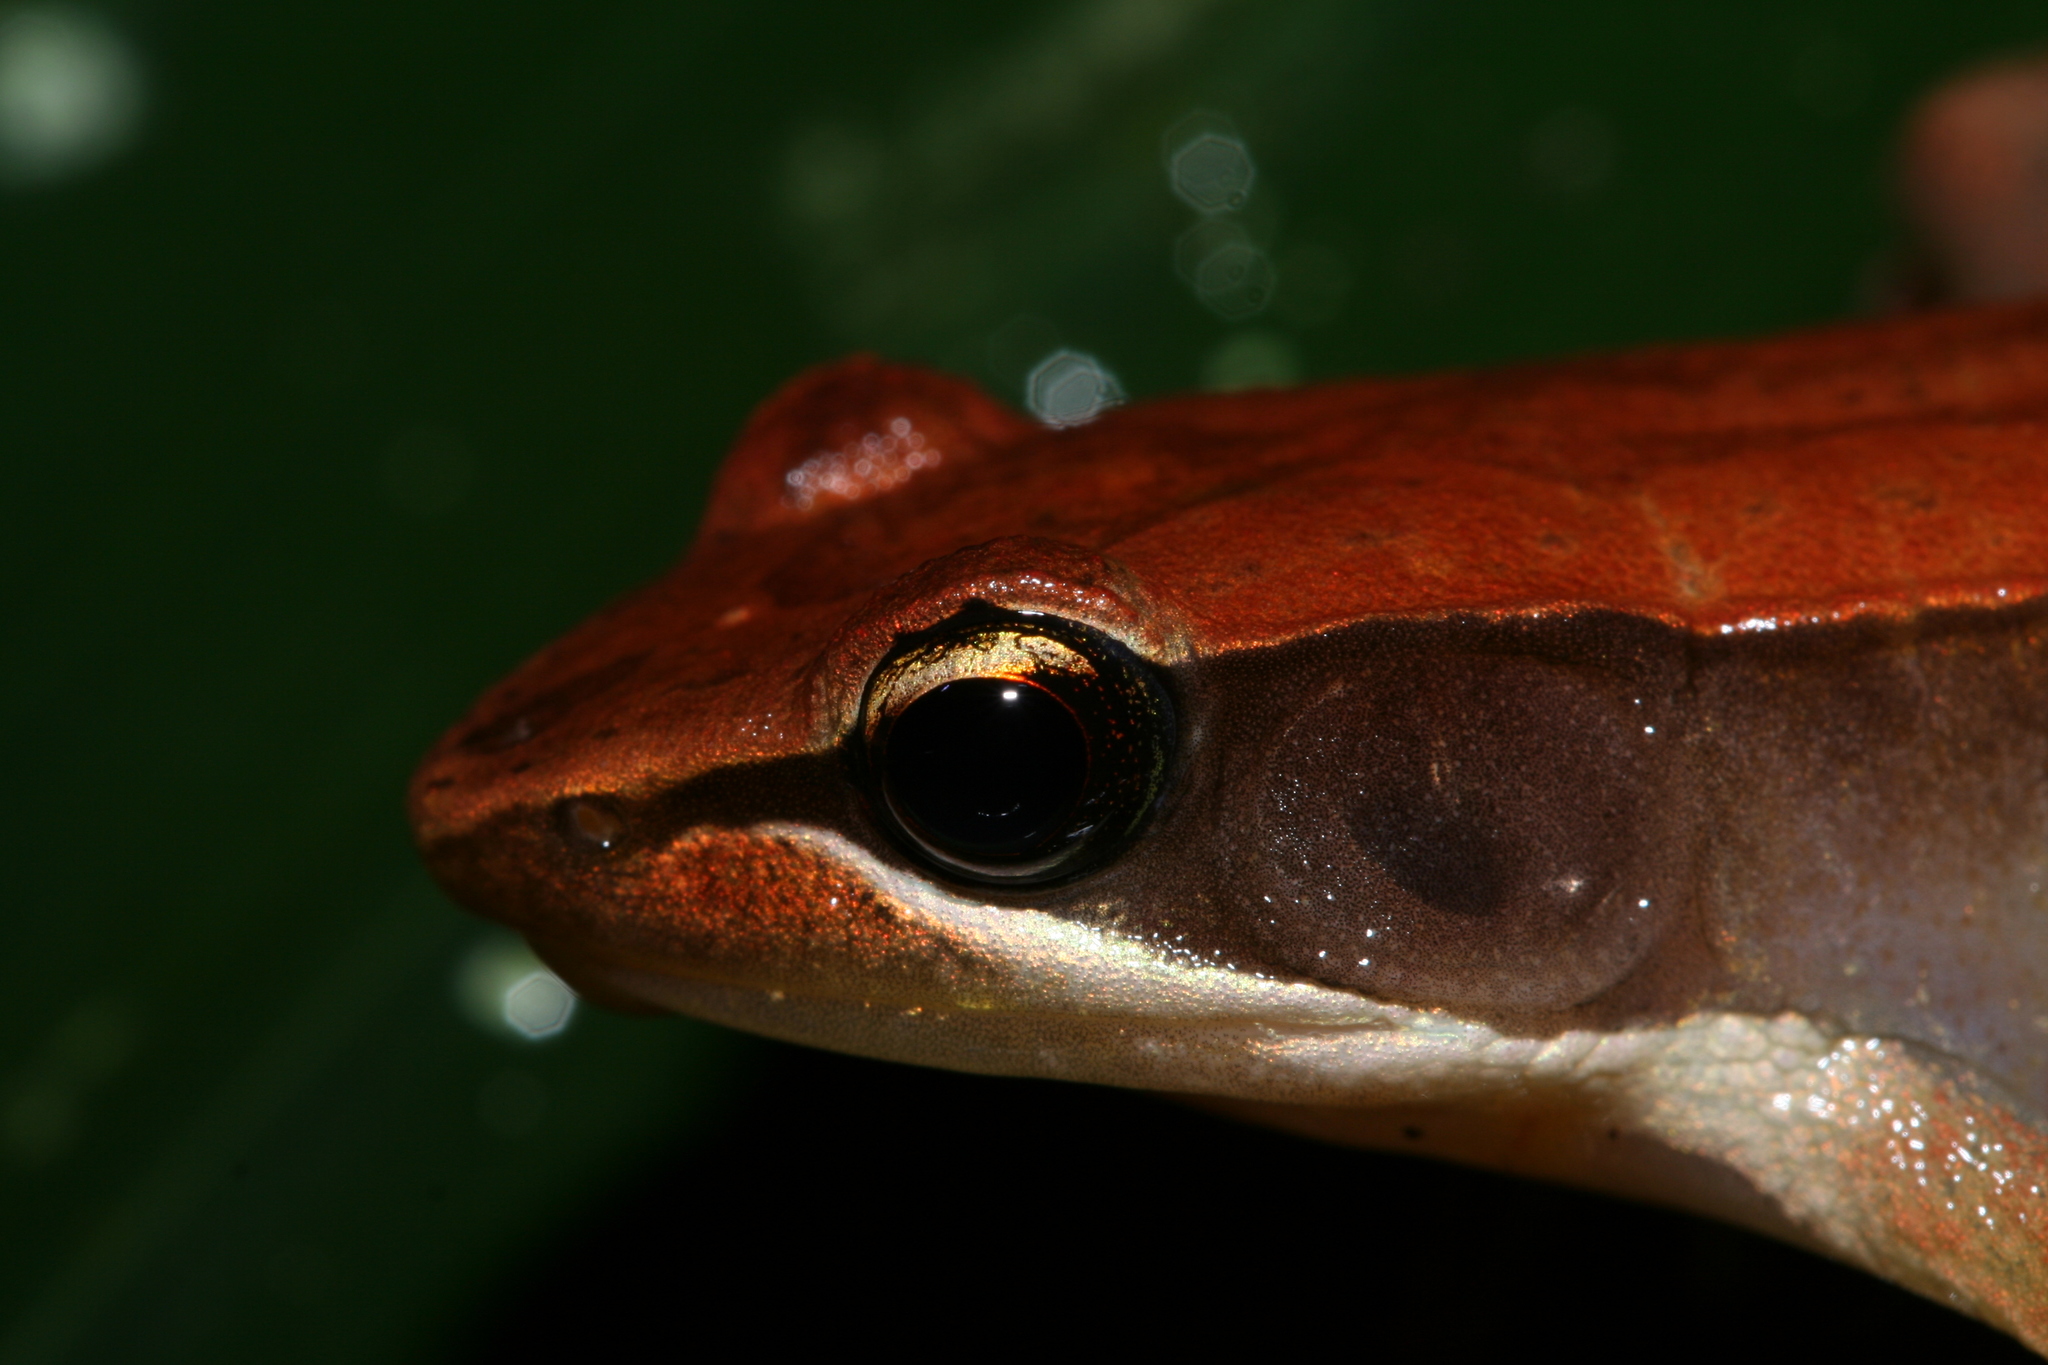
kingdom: Animalia
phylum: Chordata
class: Amphibia
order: Anura
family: Mantellidae
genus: Mantidactylus
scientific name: Mantidactylus melanopleura
